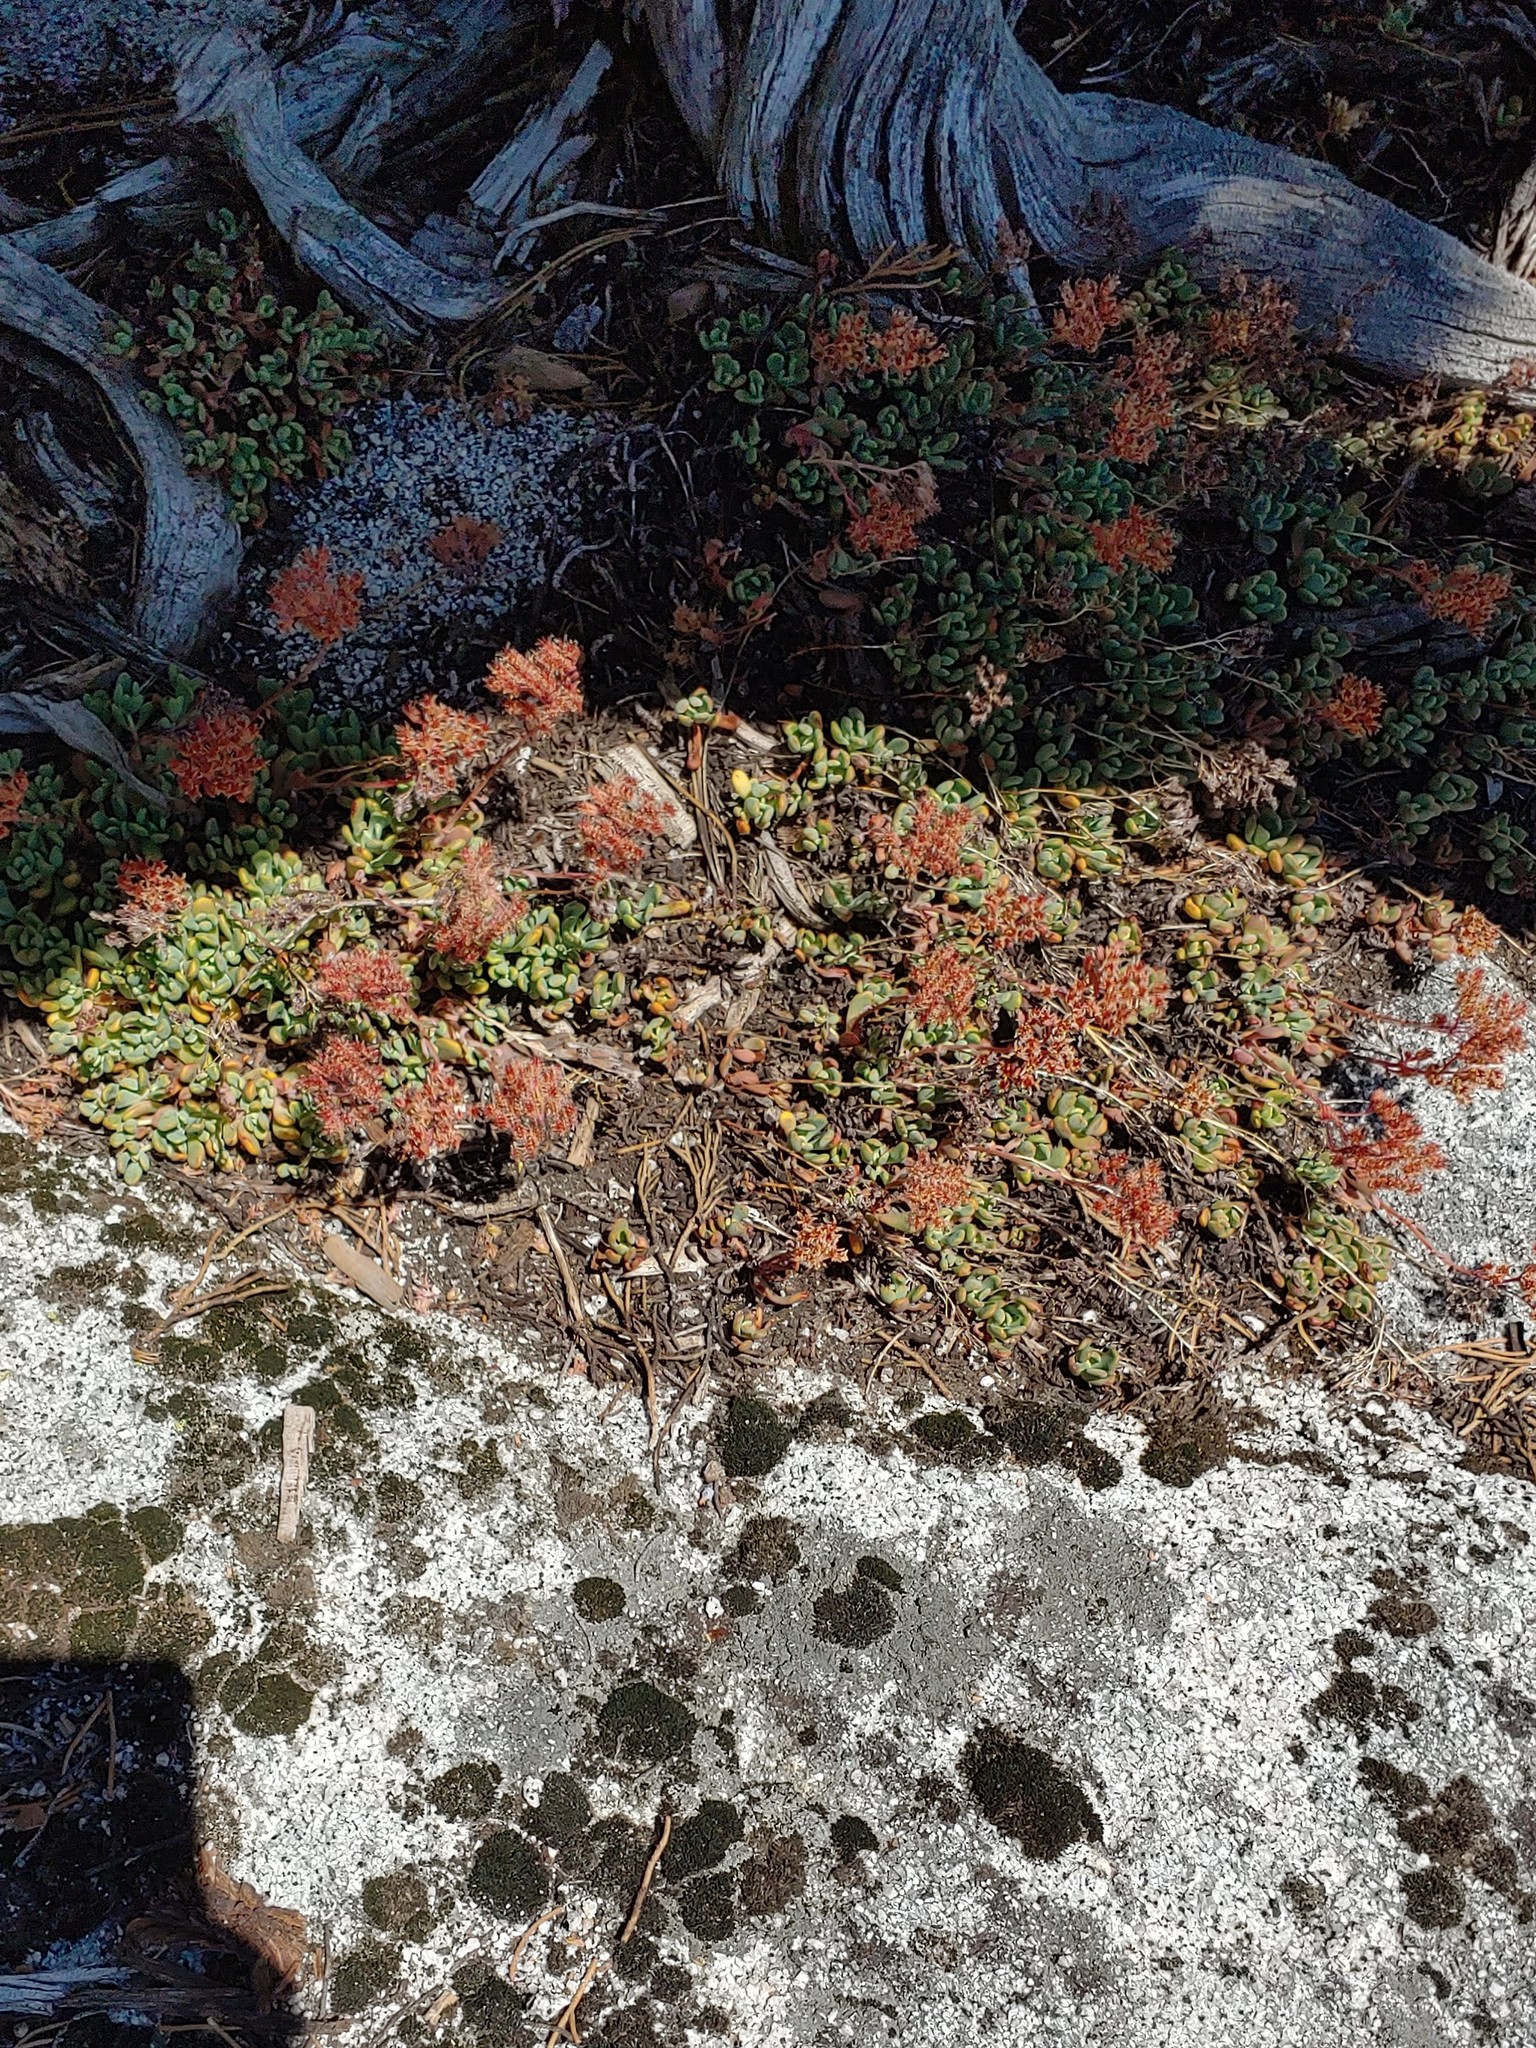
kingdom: Plantae
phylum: Tracheophyta
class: Magnoliopsida
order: Saxifragales
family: Crassulaceae
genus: Sedum
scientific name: Sedum obtusatum
